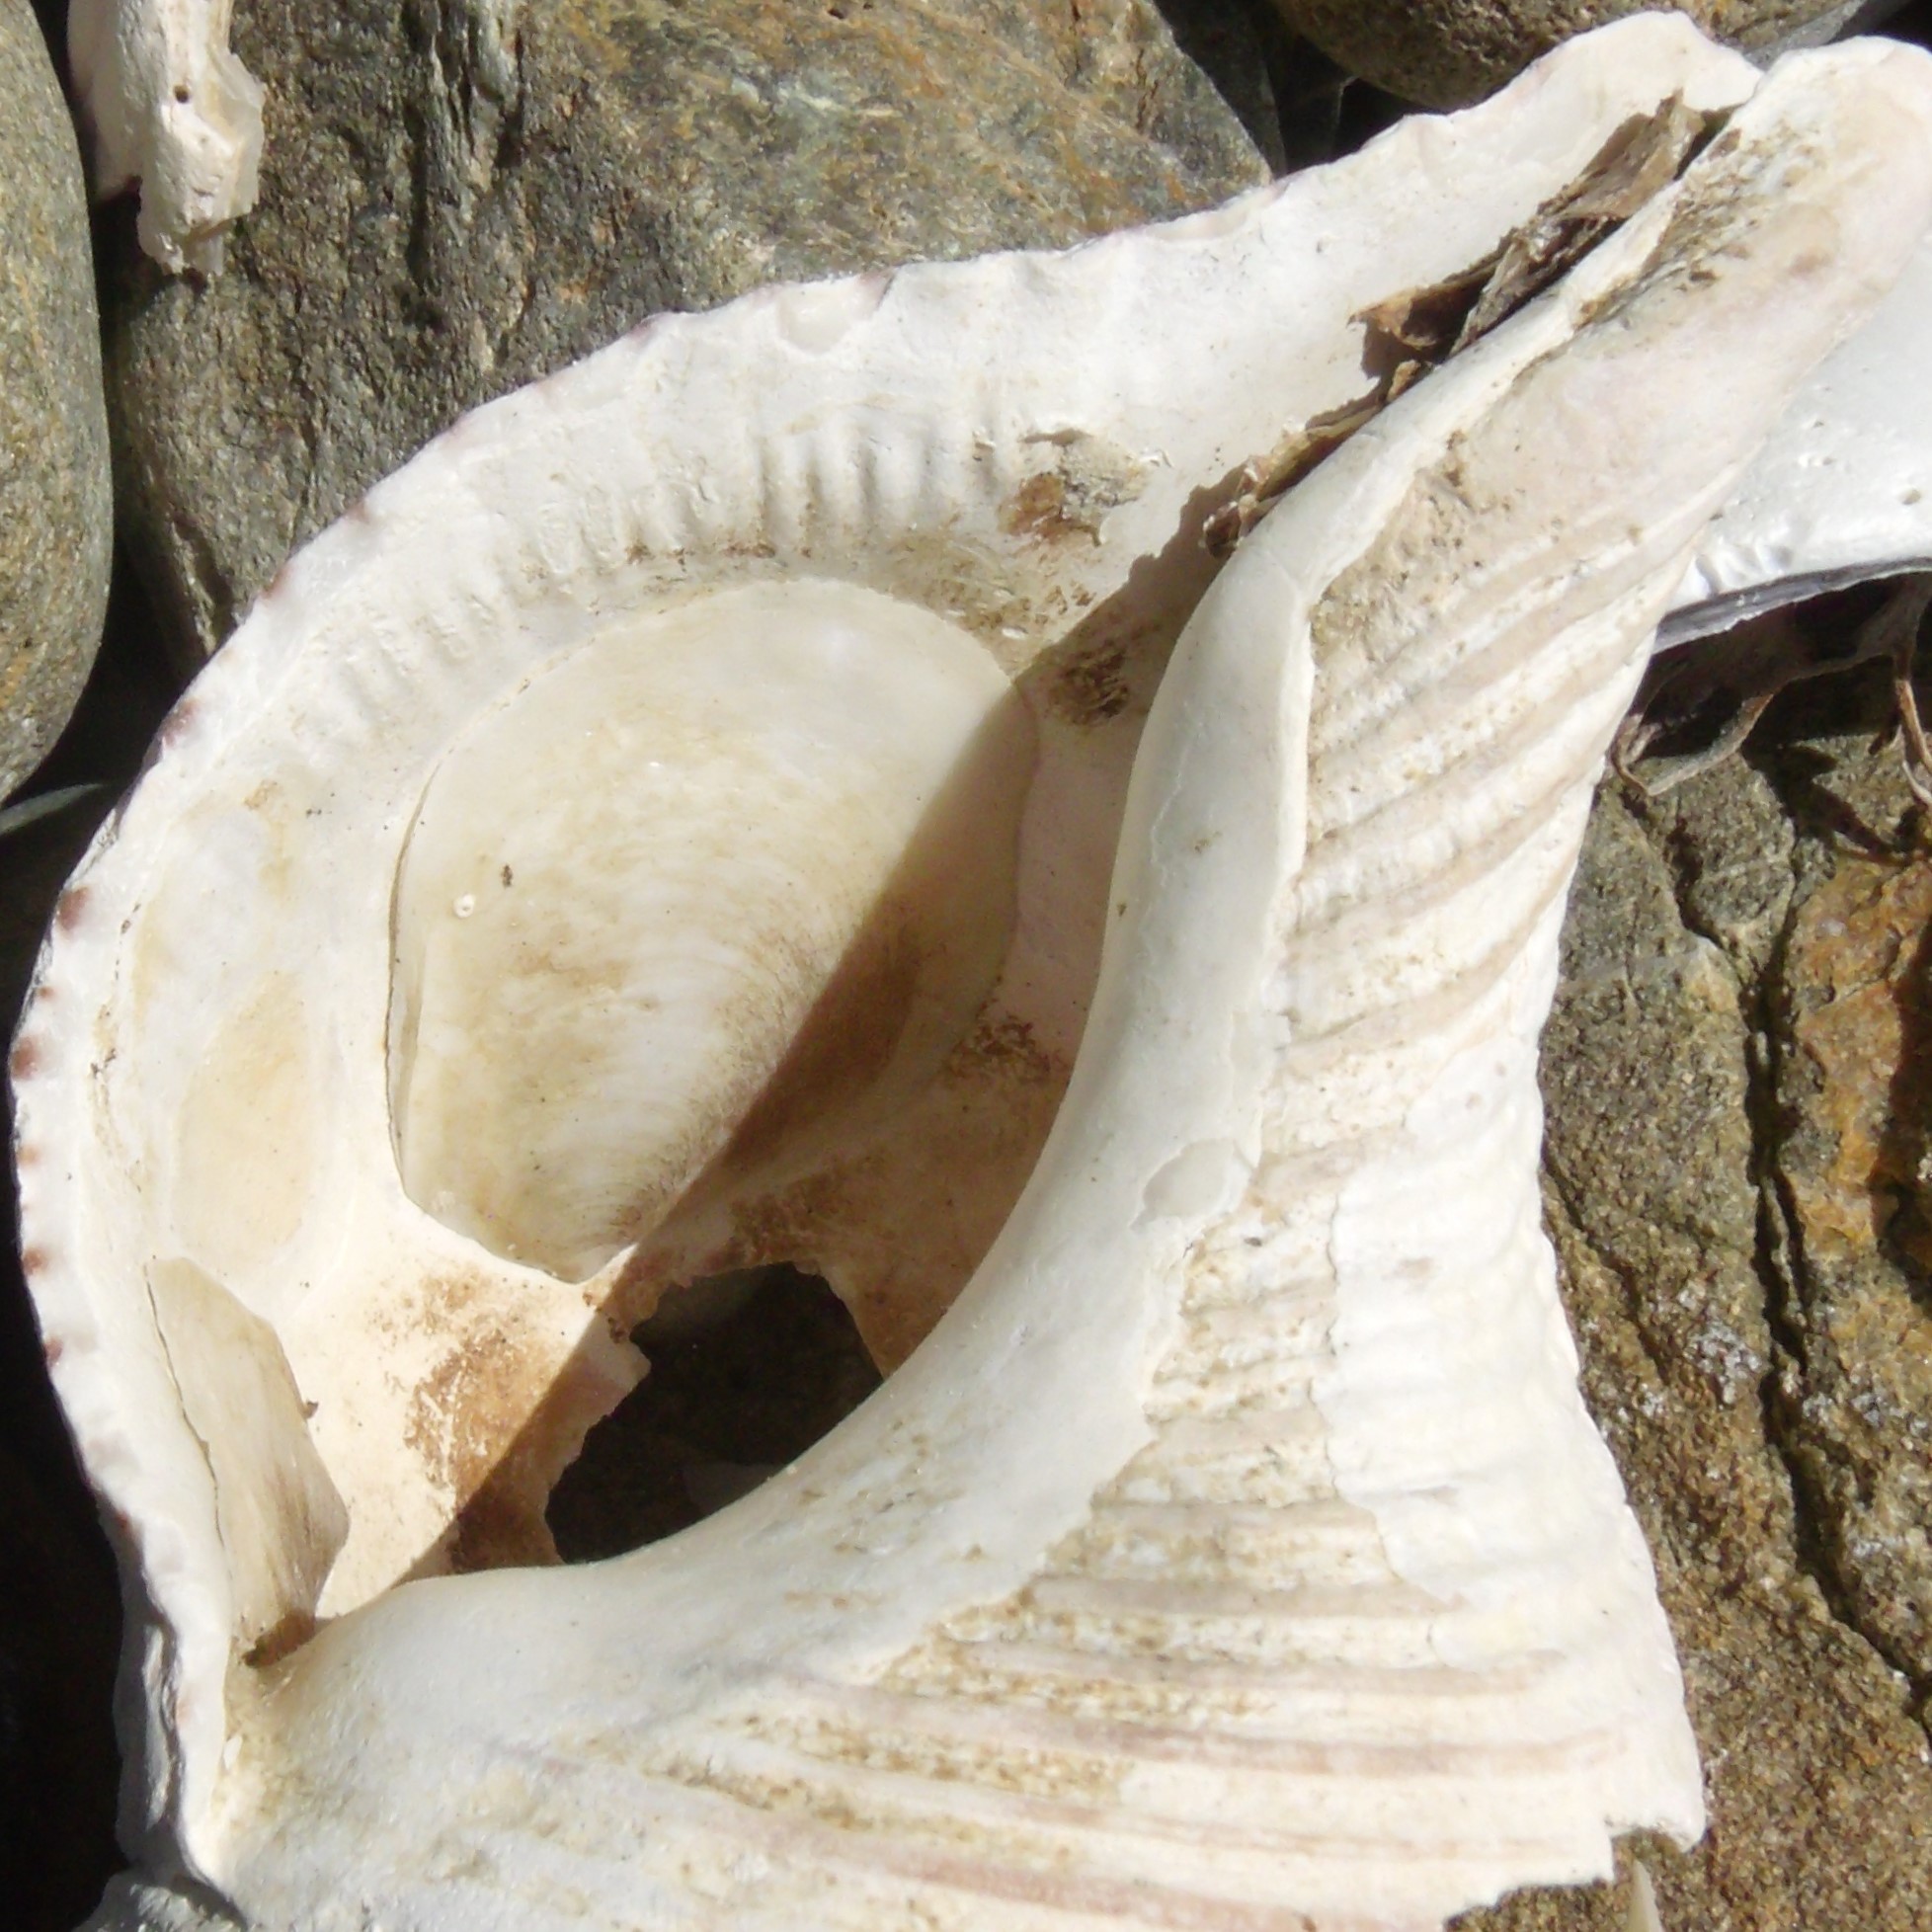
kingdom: Animalia
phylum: Mollusca
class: Gastropoda
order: Littorinimorpha
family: Calyptraeidae
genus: Maoricrypta
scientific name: Maoricrypta sodalis
